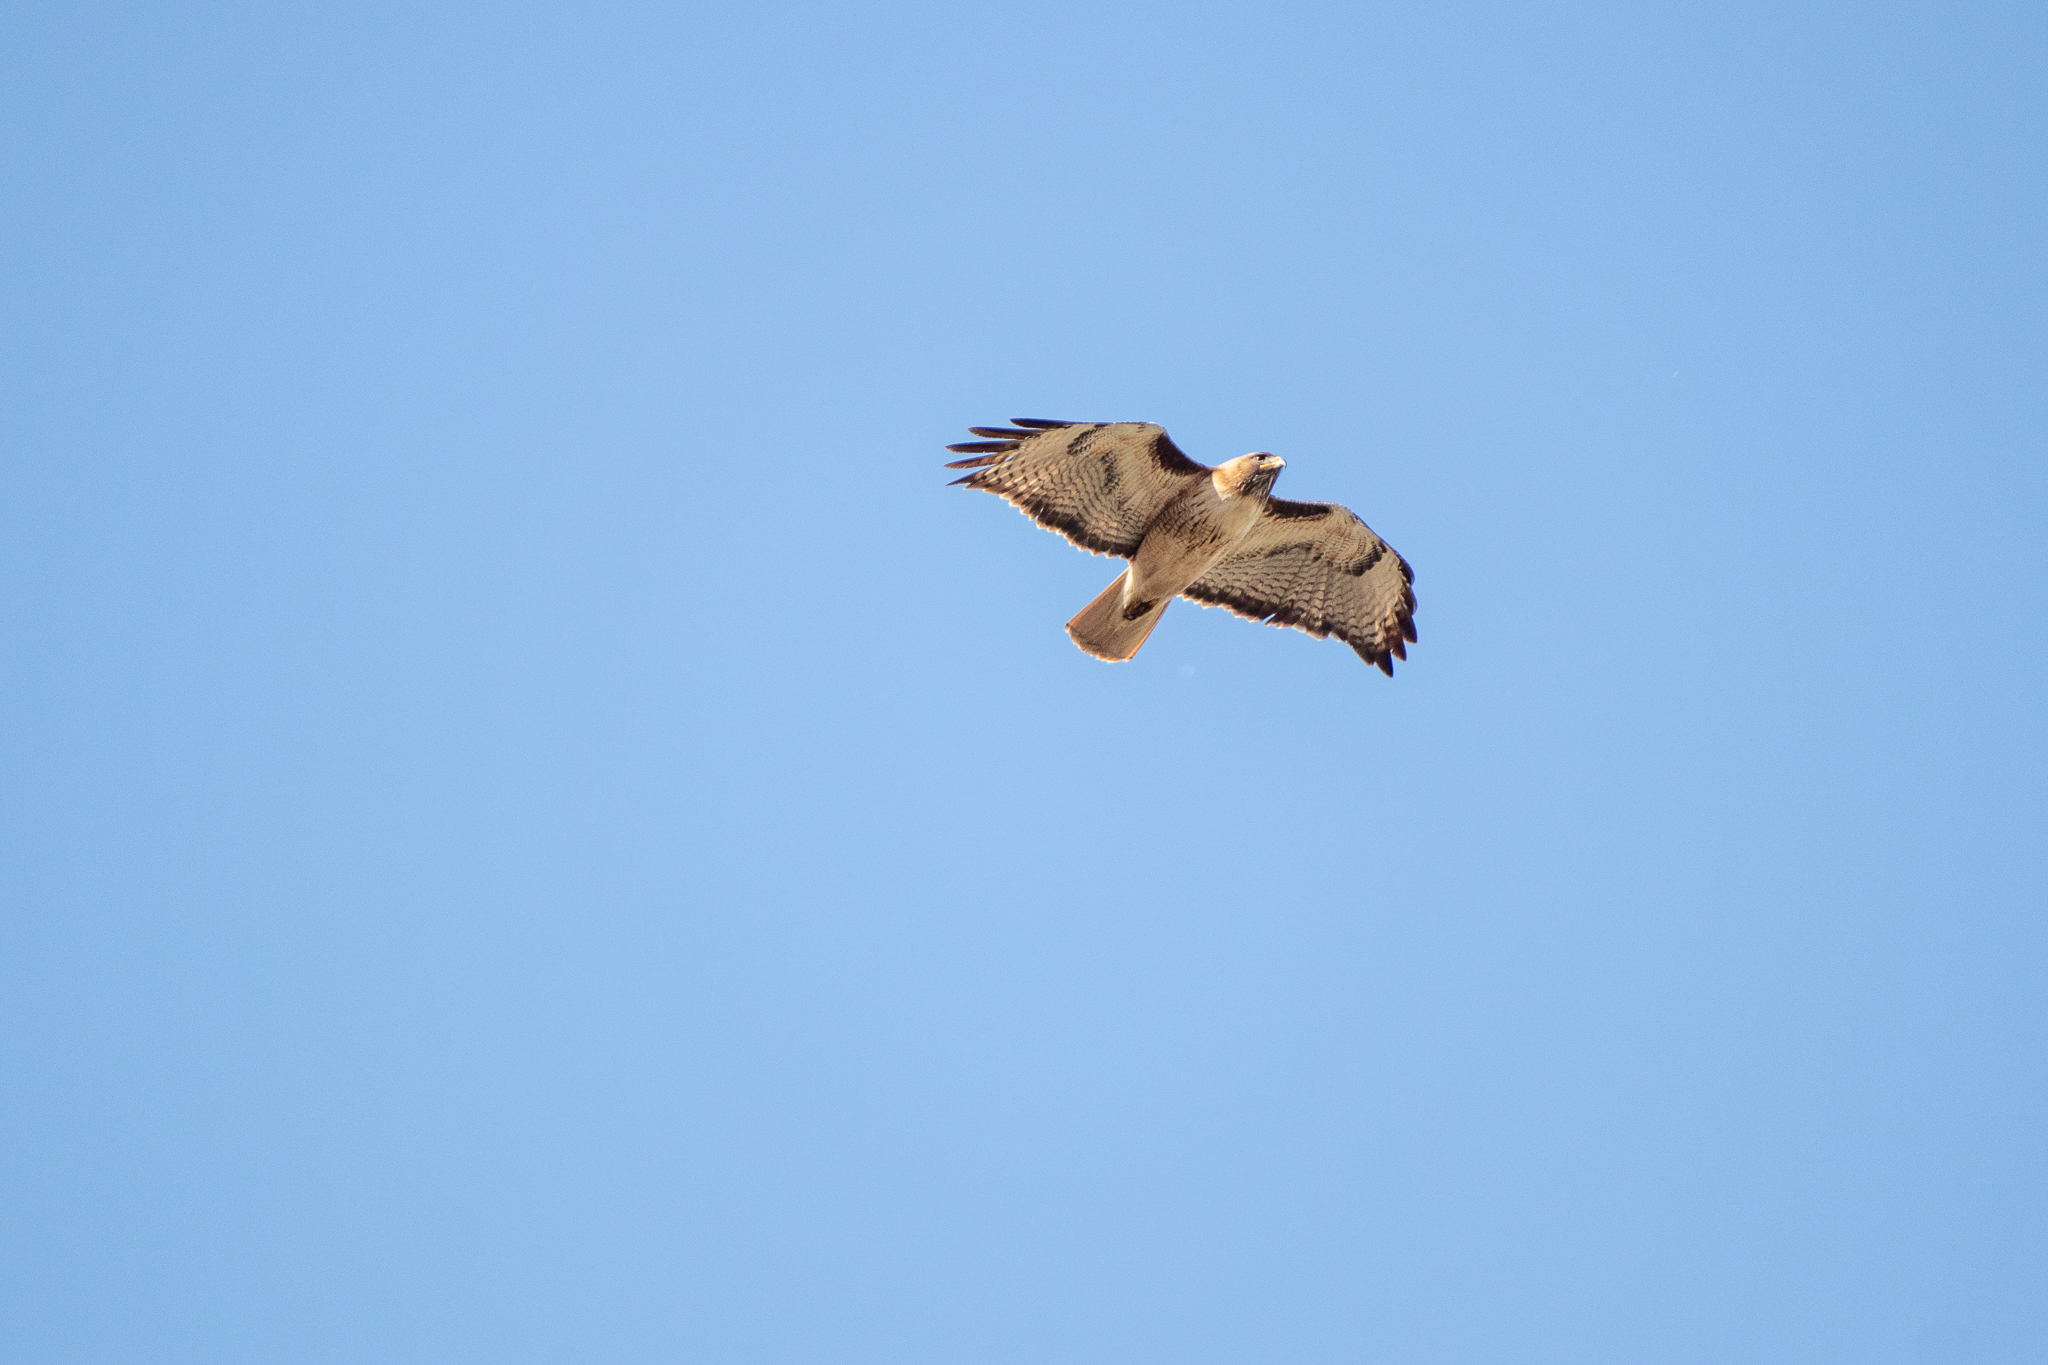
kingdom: Animalia
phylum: Chordata
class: Aves
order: Accipitriformes
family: Accipitridae
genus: Buteo
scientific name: Buteo jamaicensis
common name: Red-tailed hawk
